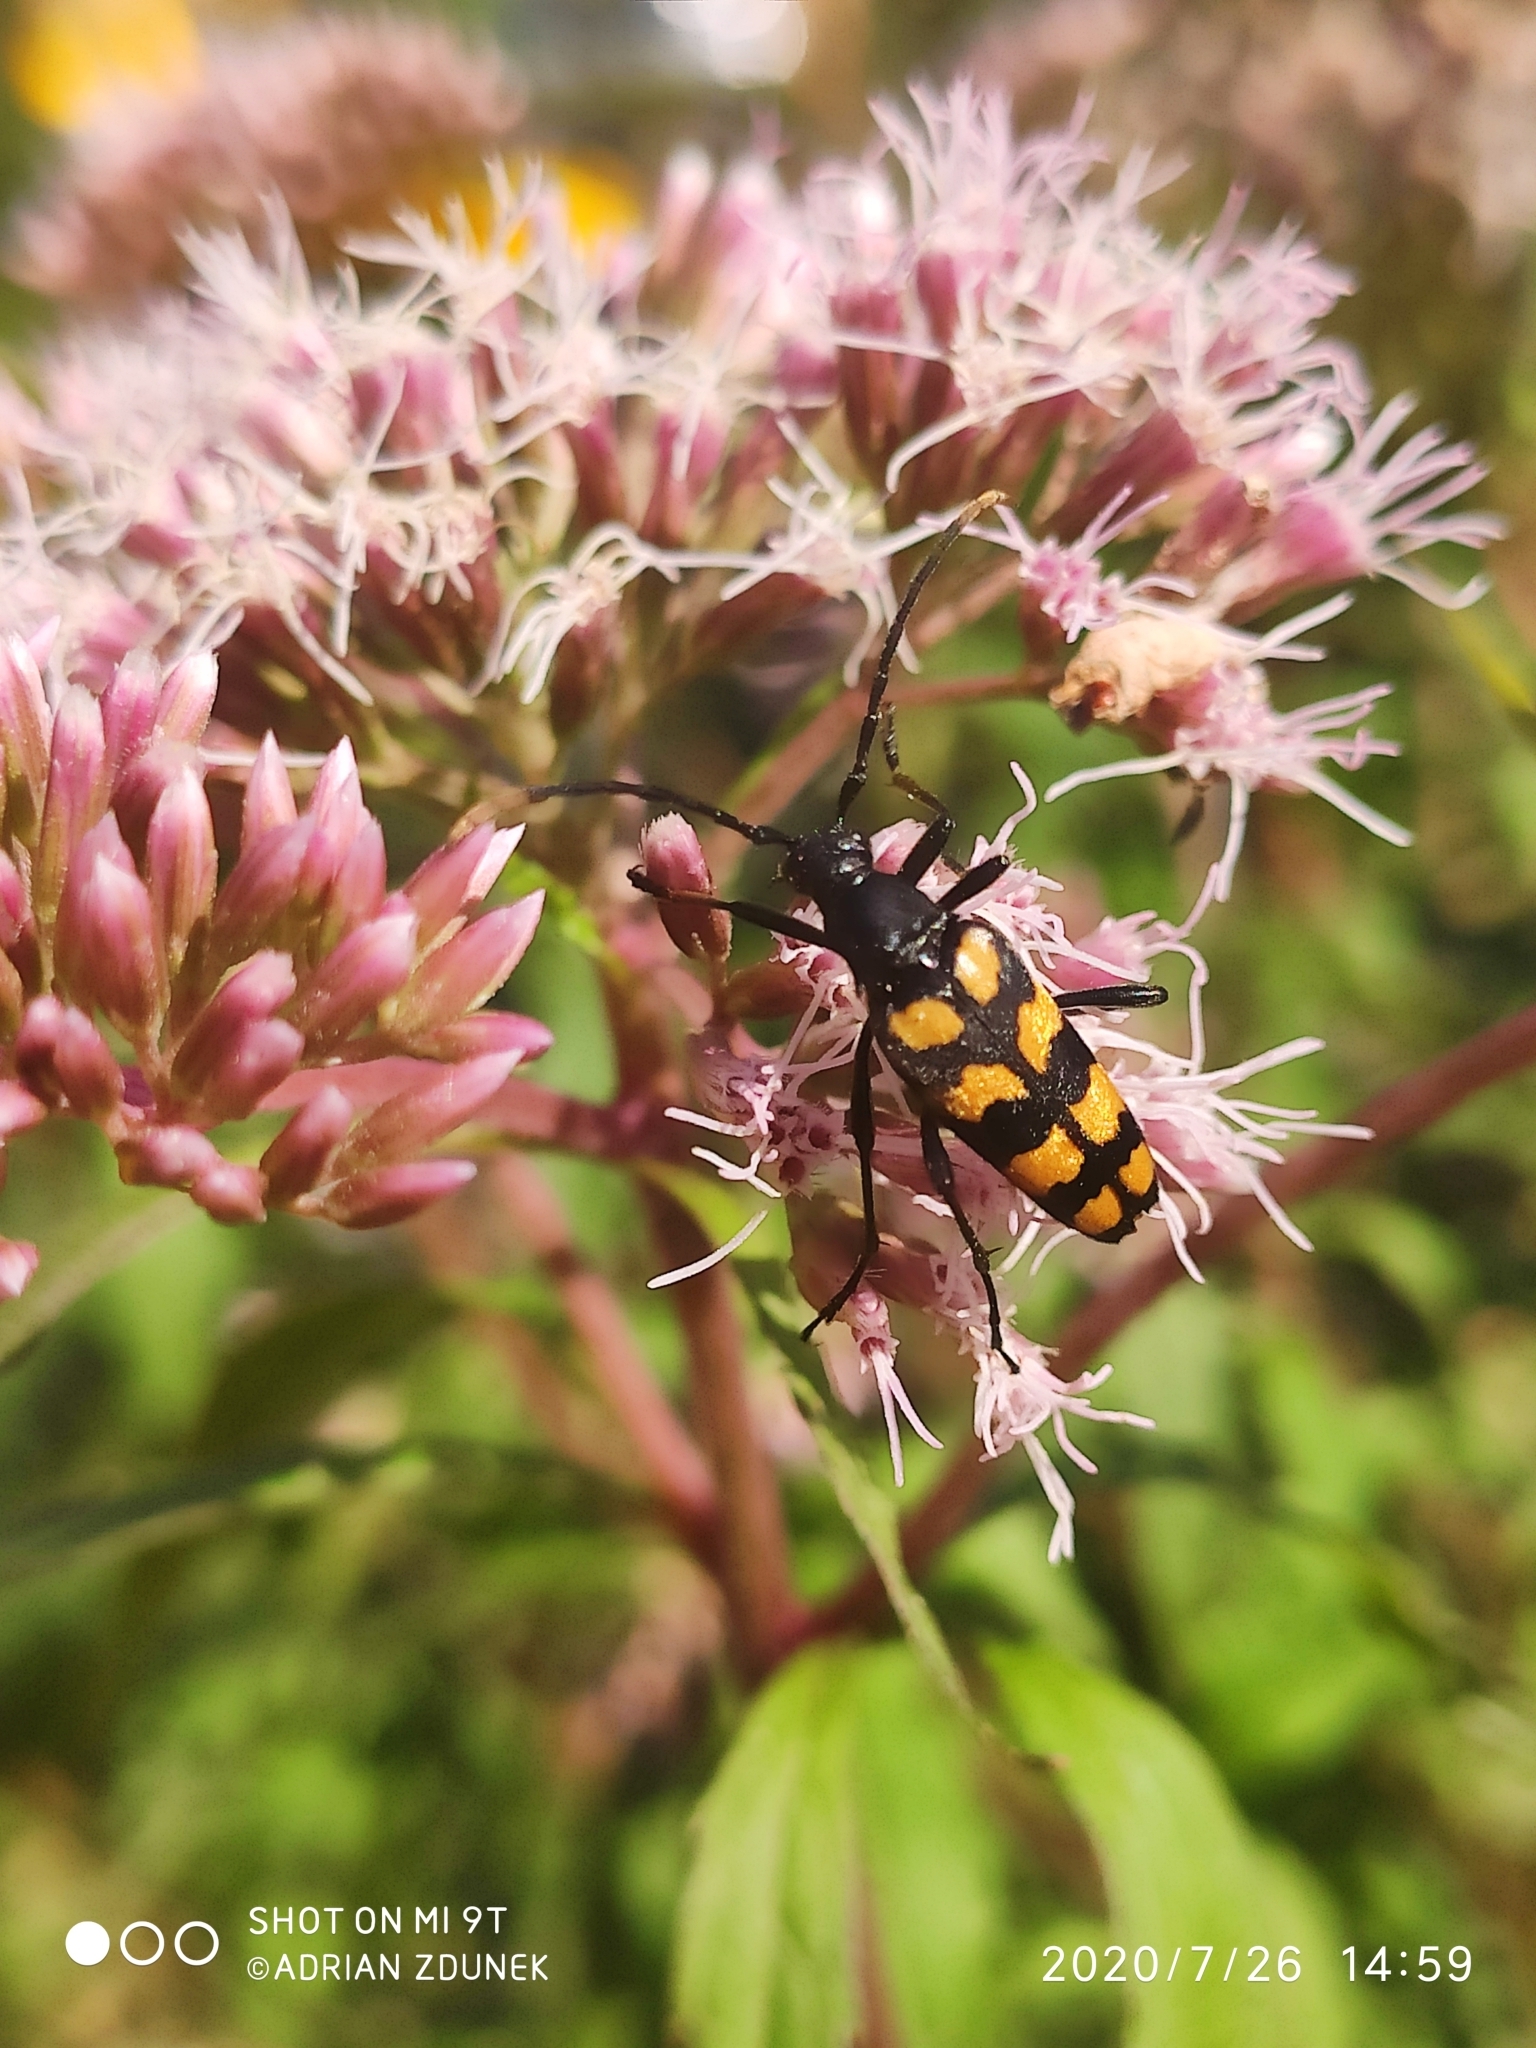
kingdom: Animalia
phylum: Arthropoda
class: Insecta
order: Coleoptera
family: Cerambycidae
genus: Leptura
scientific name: Leptura quadrifasciata
